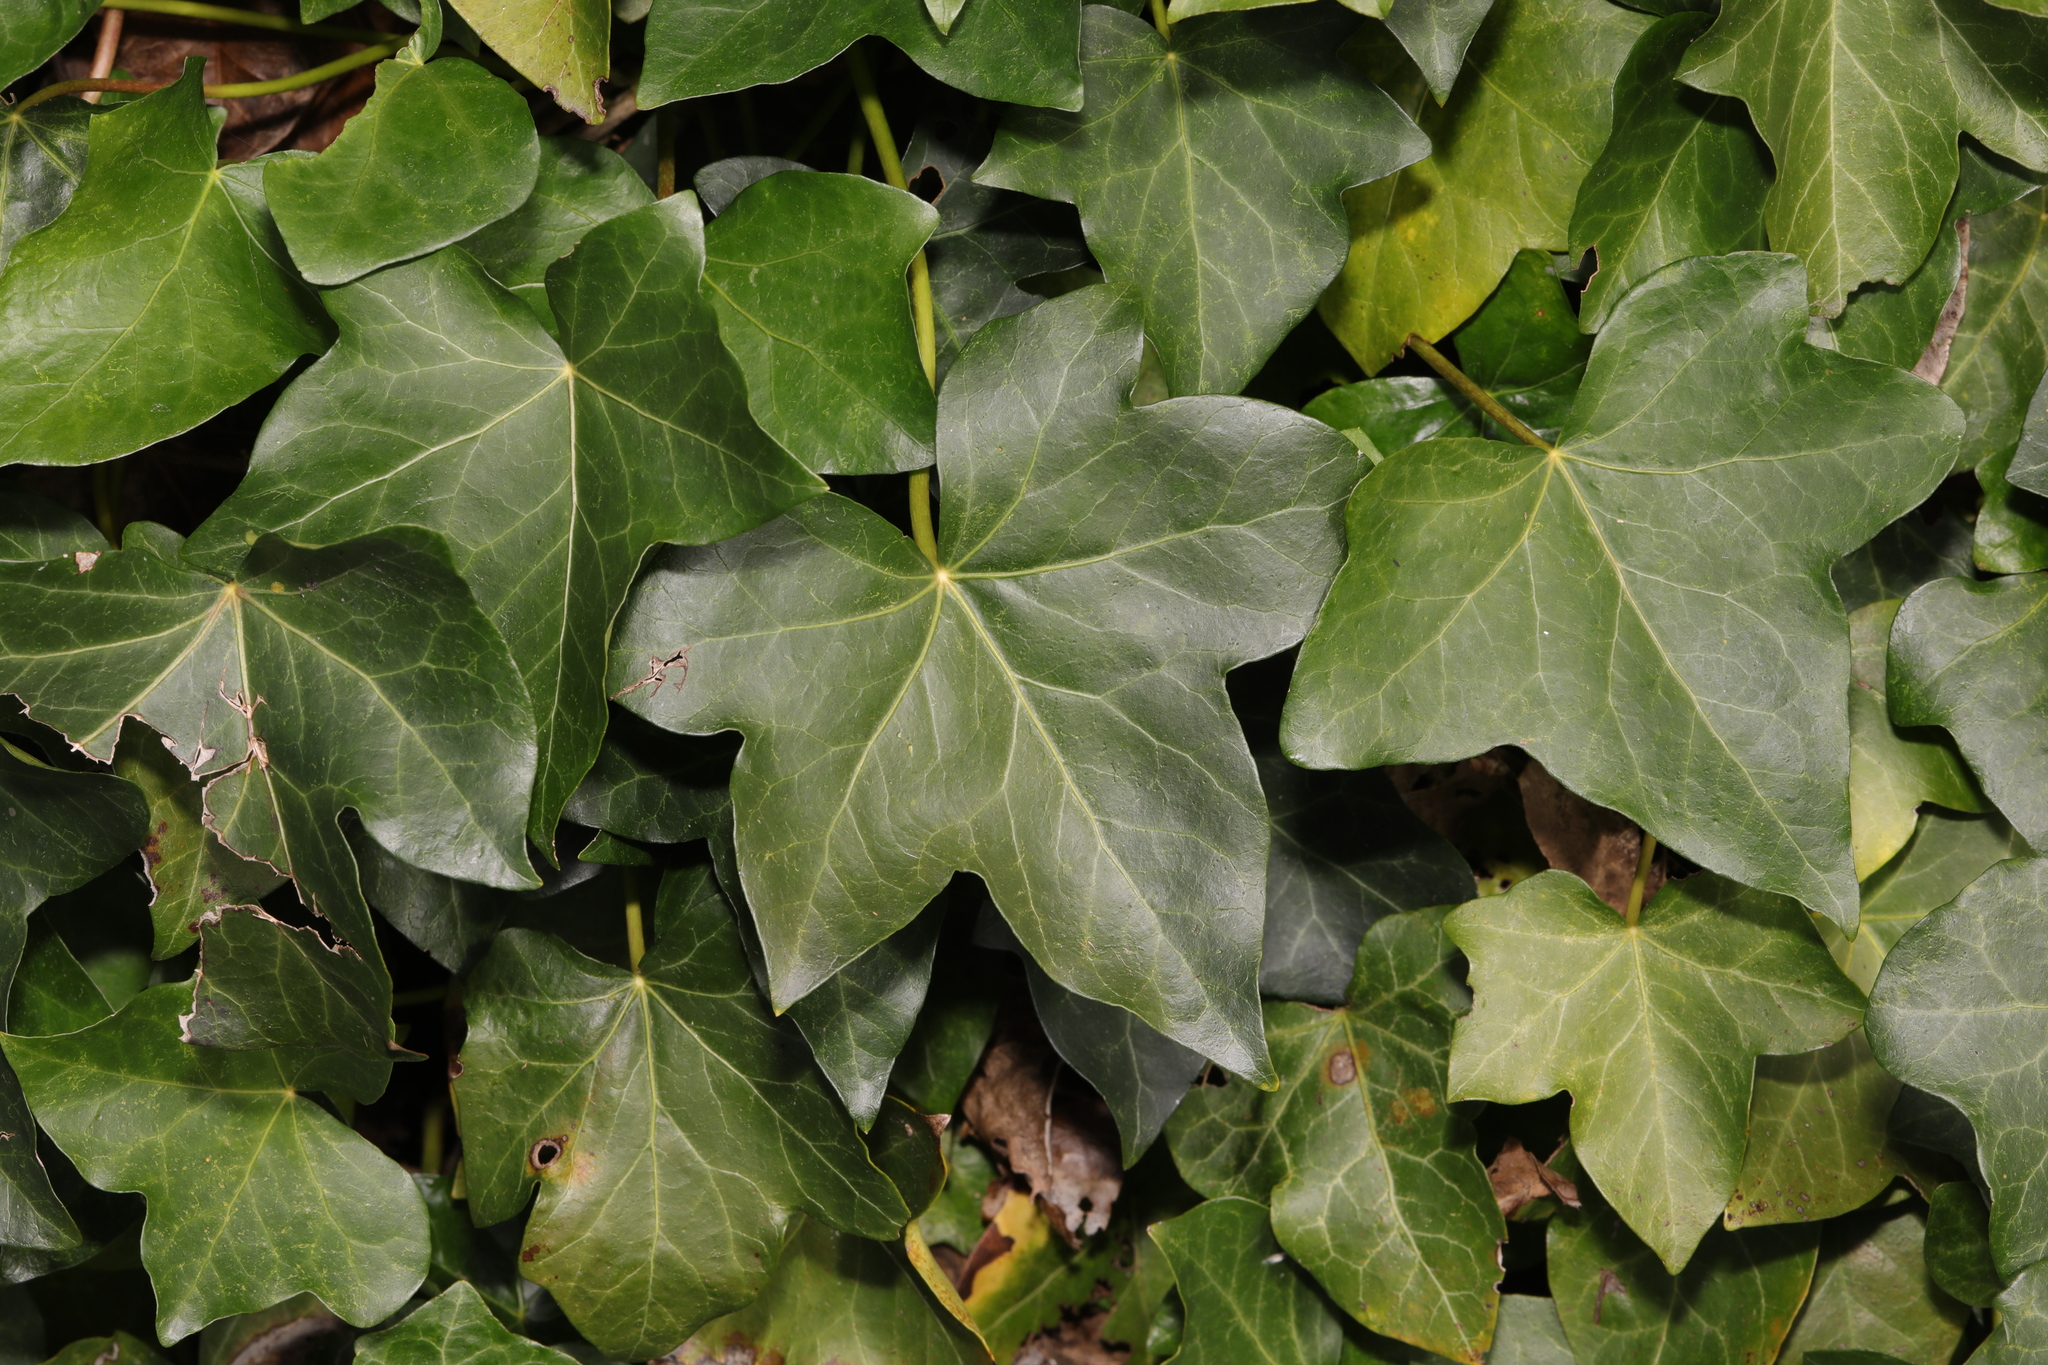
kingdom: Plantae
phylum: Tracheophyta
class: Magnoliopsida
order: Apiales
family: Araliaceae
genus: Hedera
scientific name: Hedera helix
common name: Ivy
